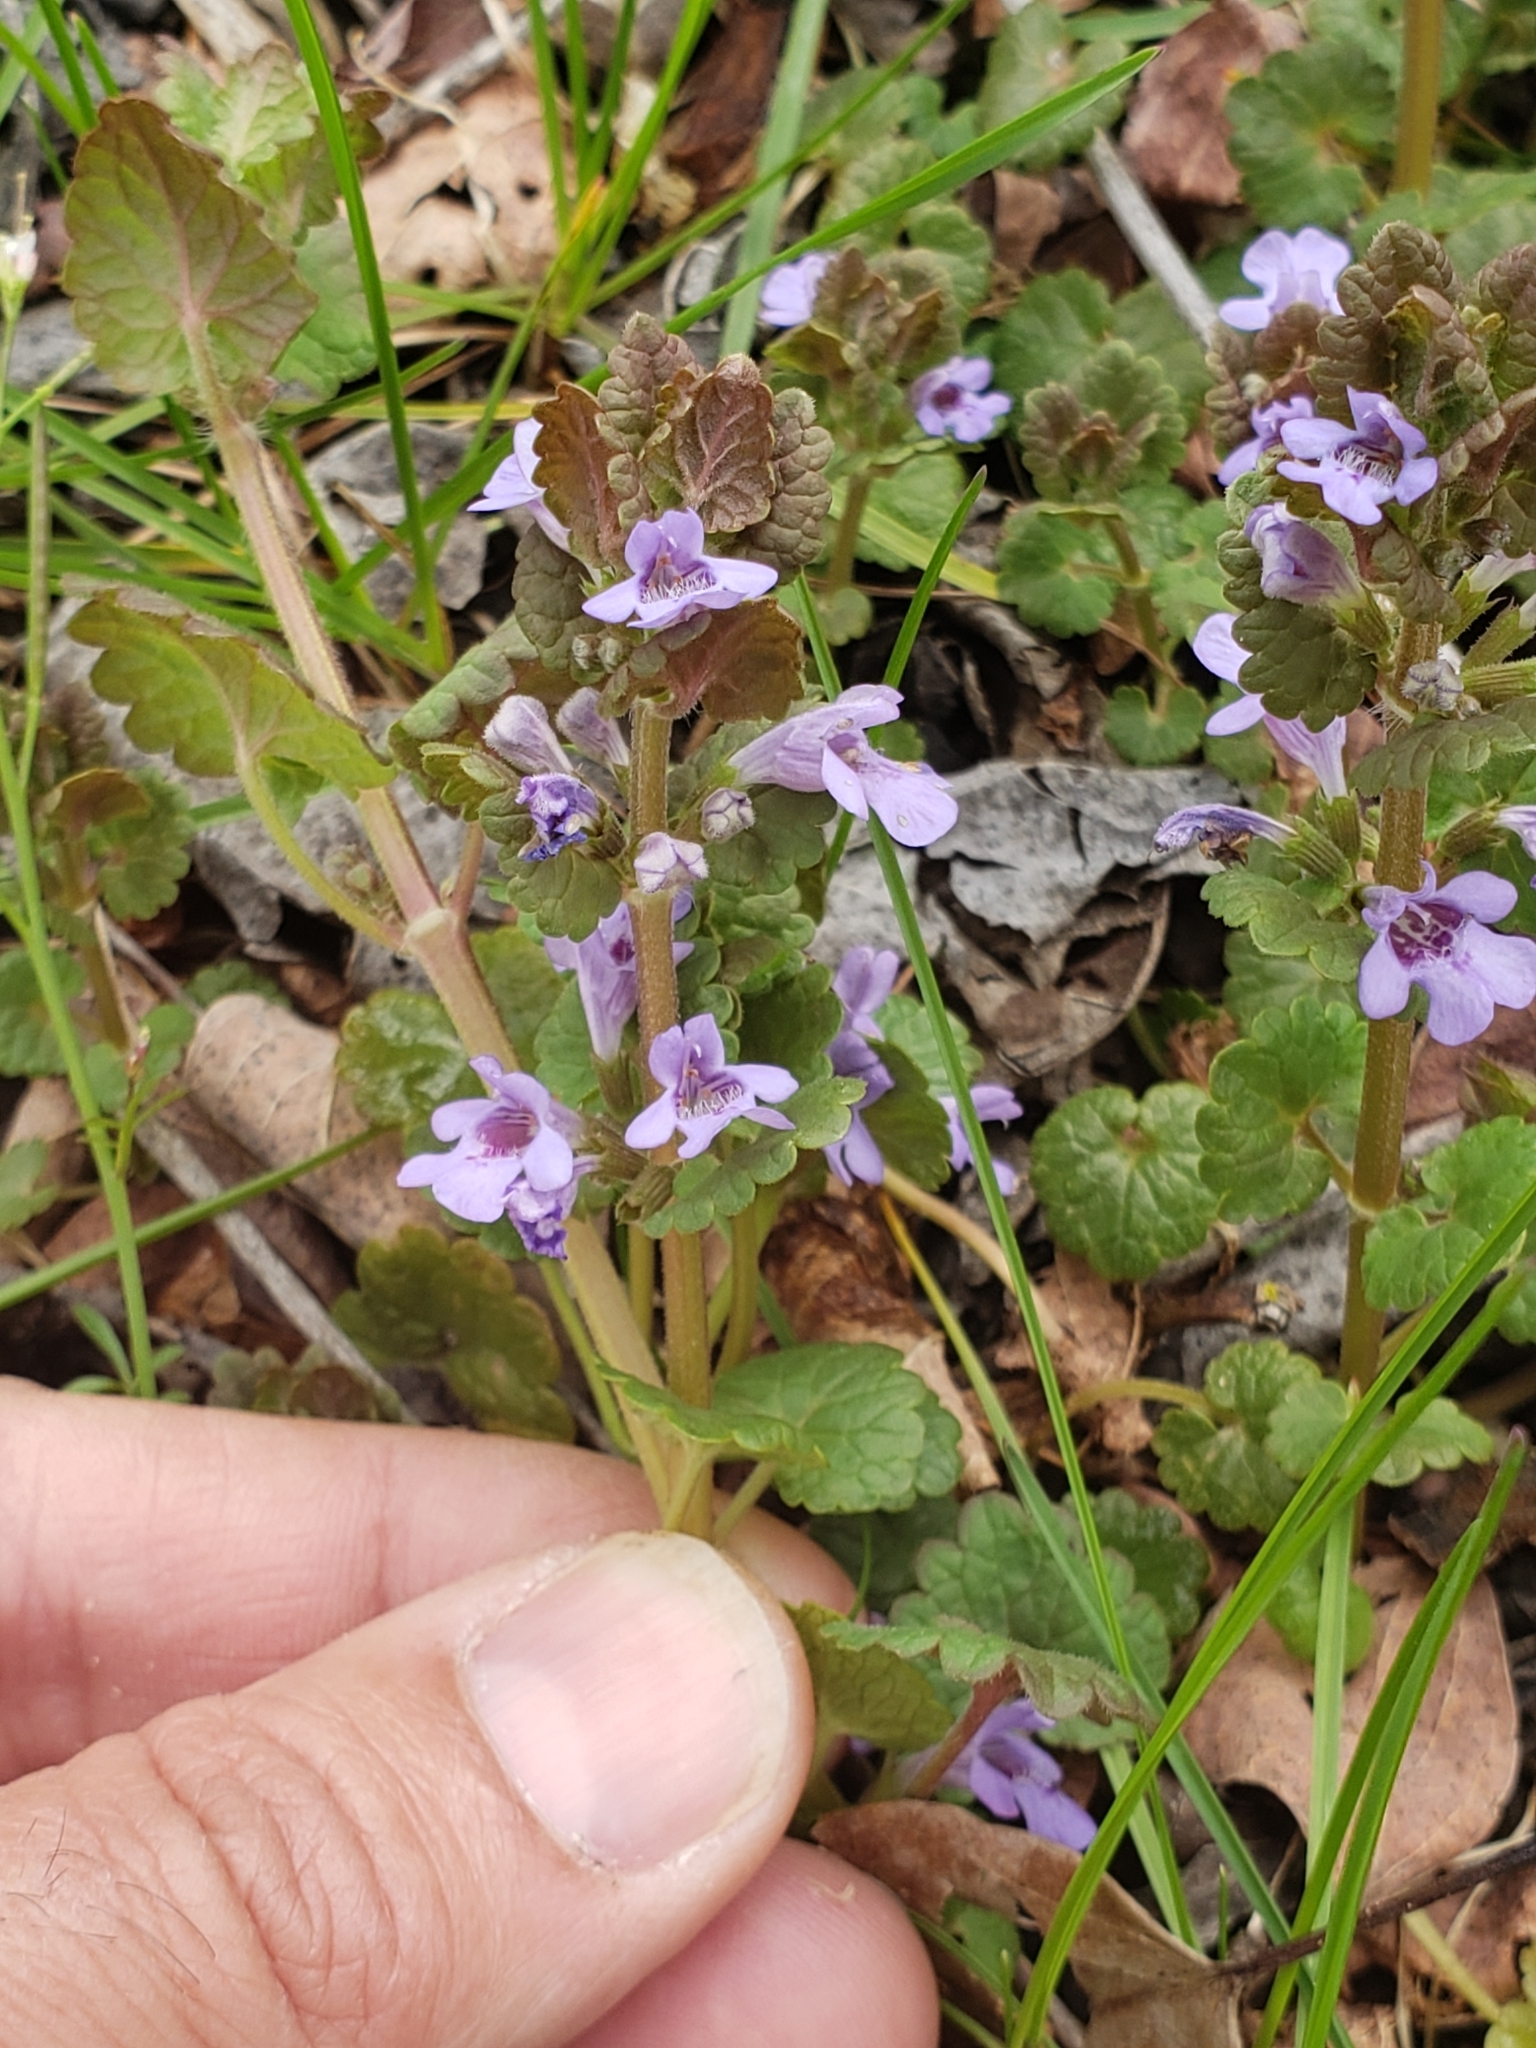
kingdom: Plantae
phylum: Tracheophyta
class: Magnoliopsida
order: Lamiales
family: Lamiaceae
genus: Glechoma
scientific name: Glechoma hederacea
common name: Ground ivy
